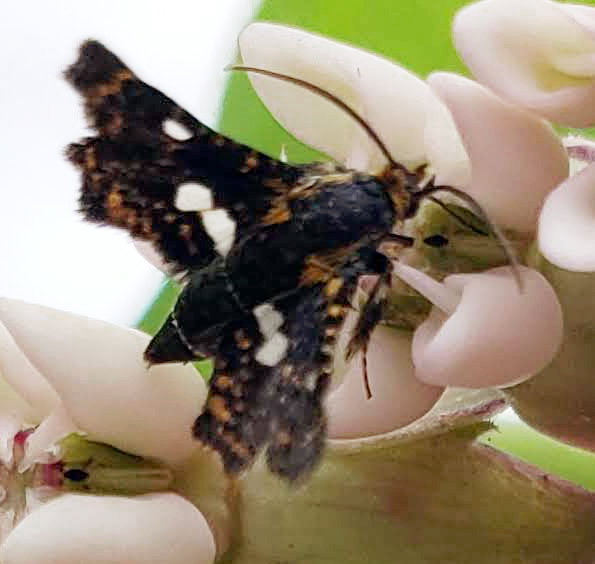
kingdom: Animalia
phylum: Arthropoda
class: Insecta
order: Lepidoptera
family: Thyrididae
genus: Thyris
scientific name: Thyris maculata
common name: Spotted thyris moth
